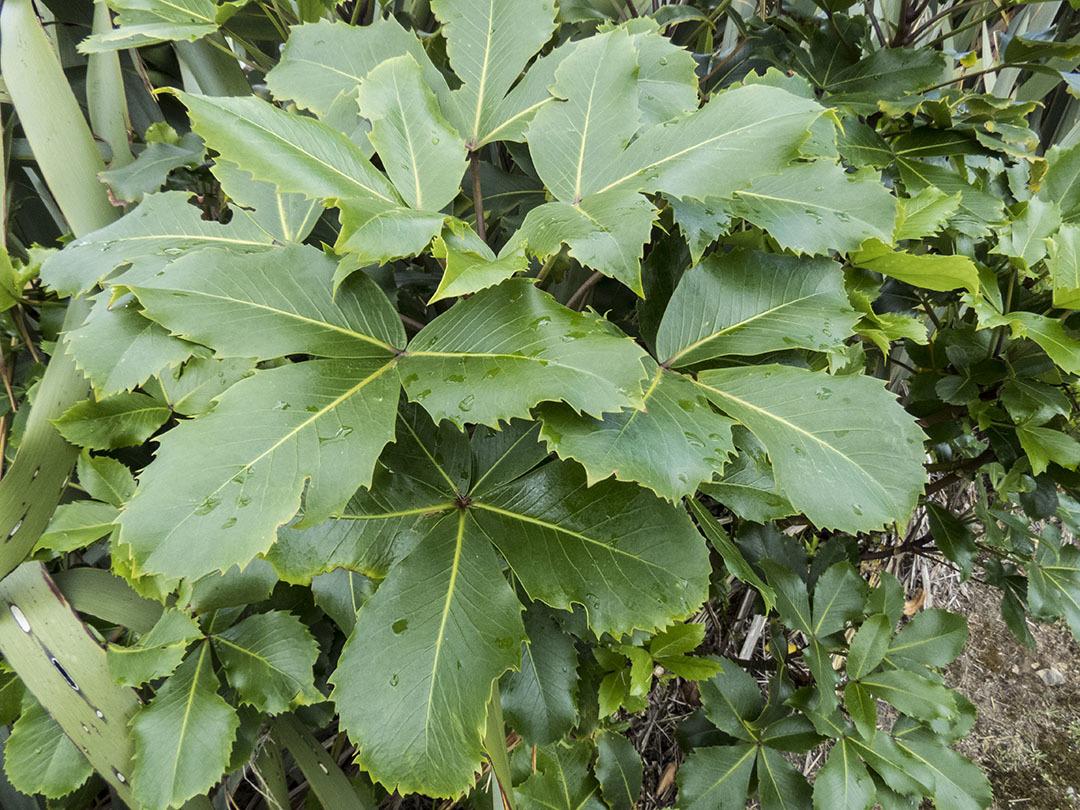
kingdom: Plantae
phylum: Tracheophyta
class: Magnoliopsida
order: Apiales
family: Araliaceae
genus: Neopanax
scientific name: Neopanax colensoi
